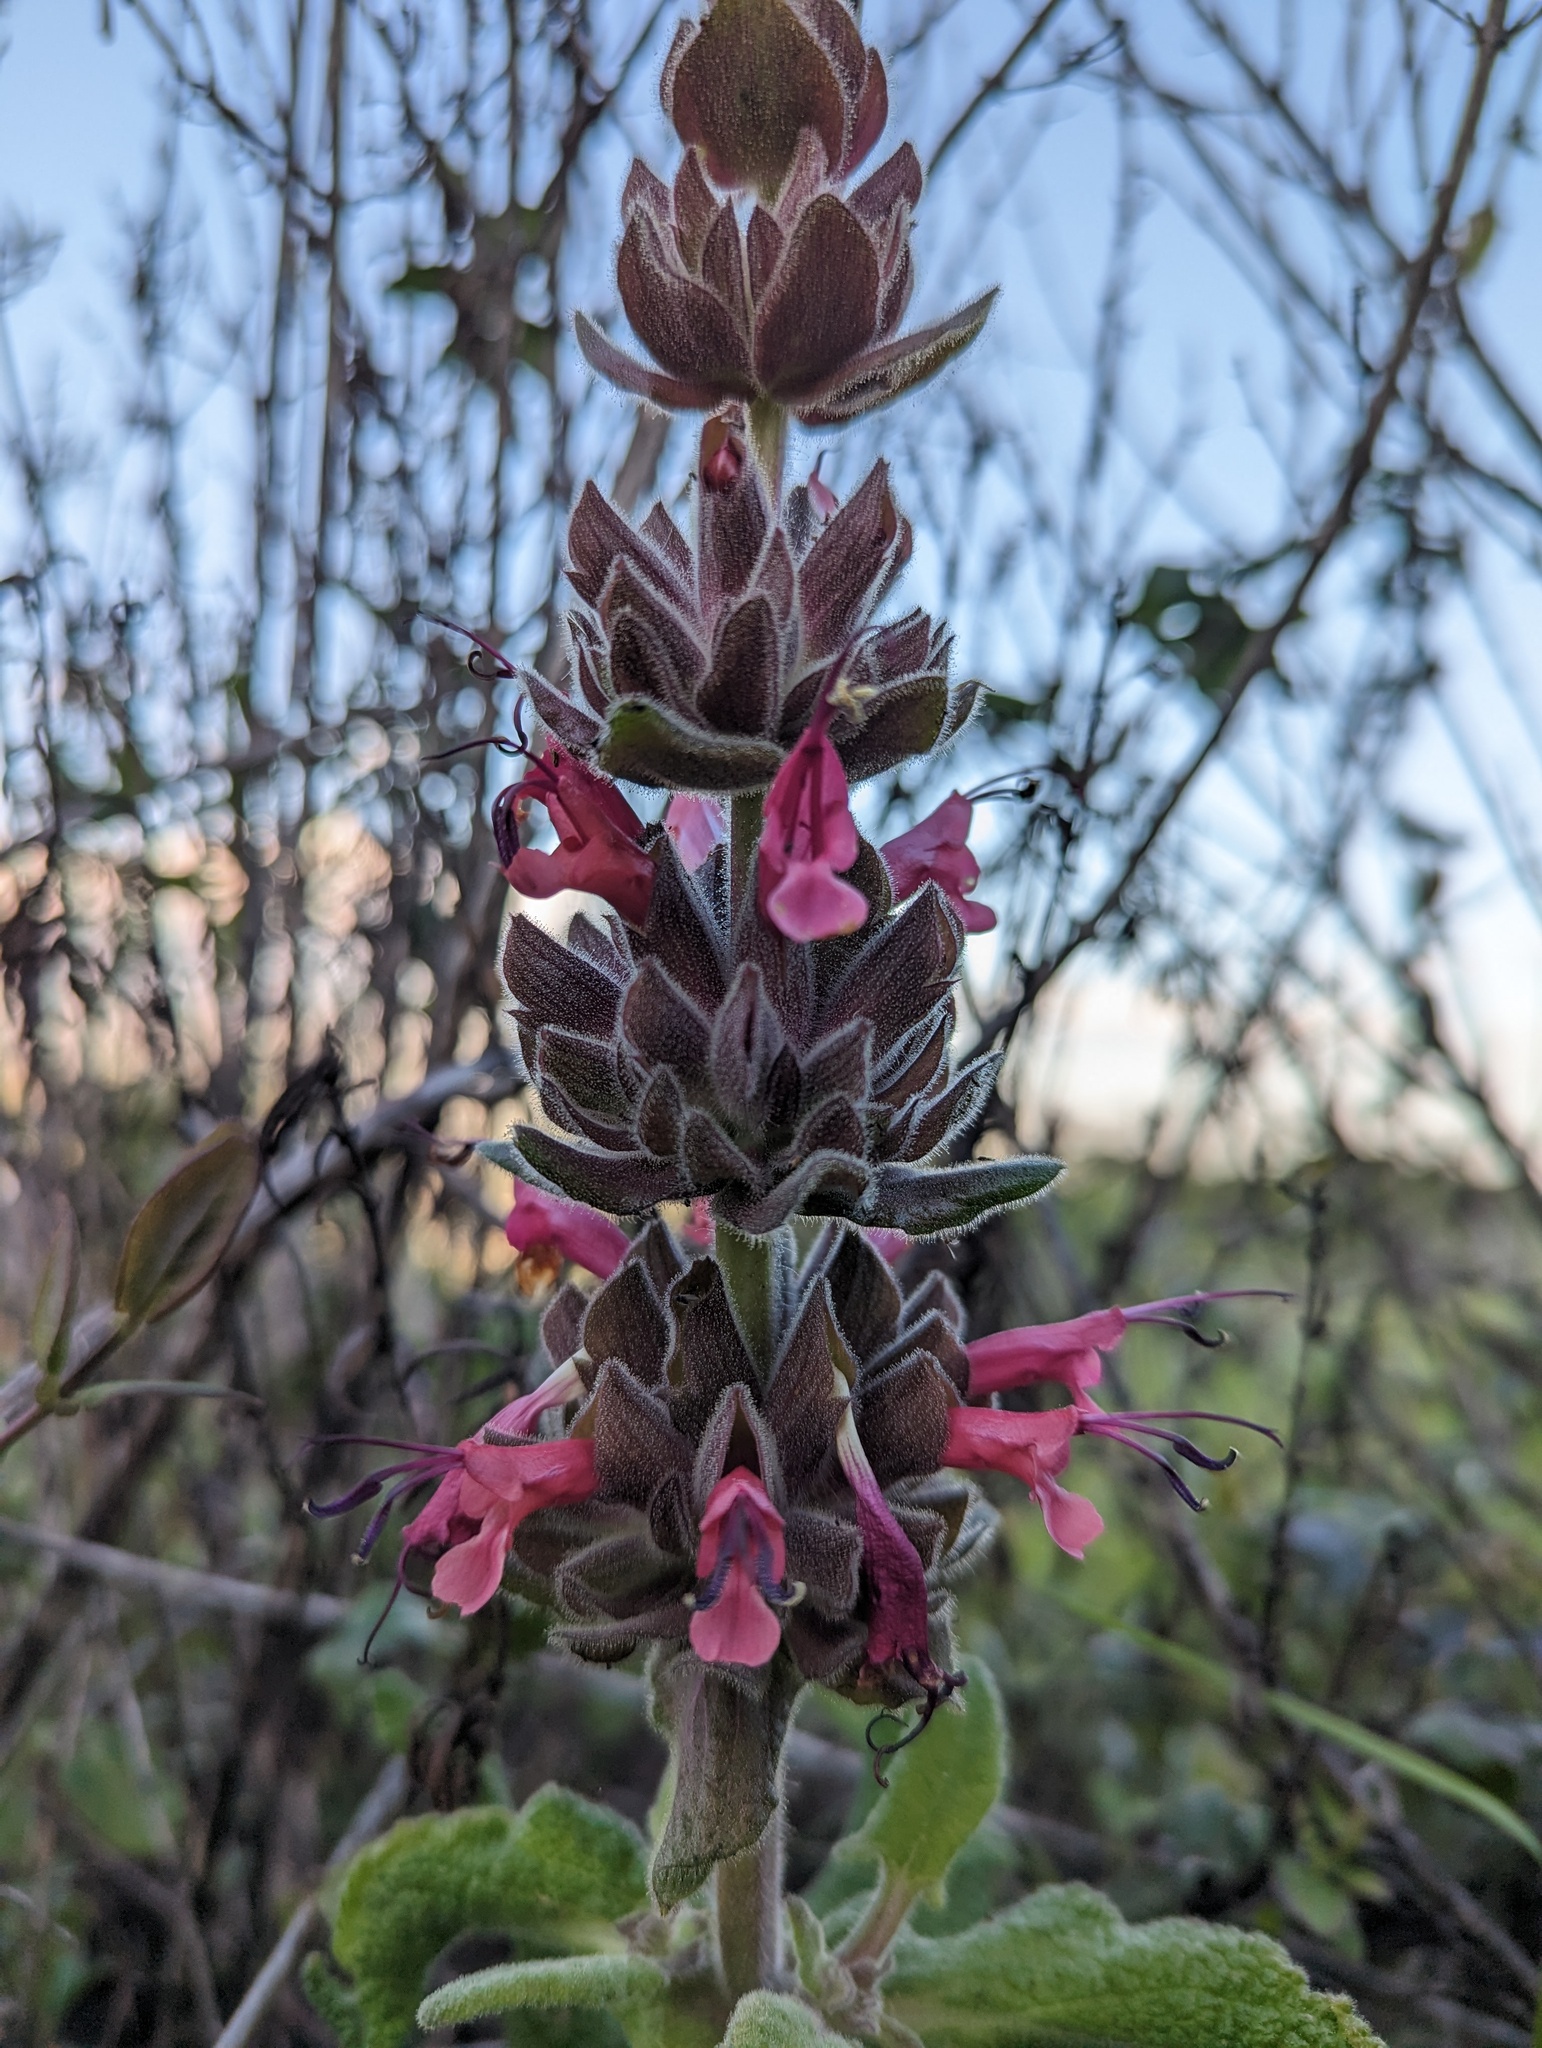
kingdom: Plantae
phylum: Tracheophyta
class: Magnoliopsida
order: Lamiales
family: Lamiaceae
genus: Salvia
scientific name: Salvia spathacea
